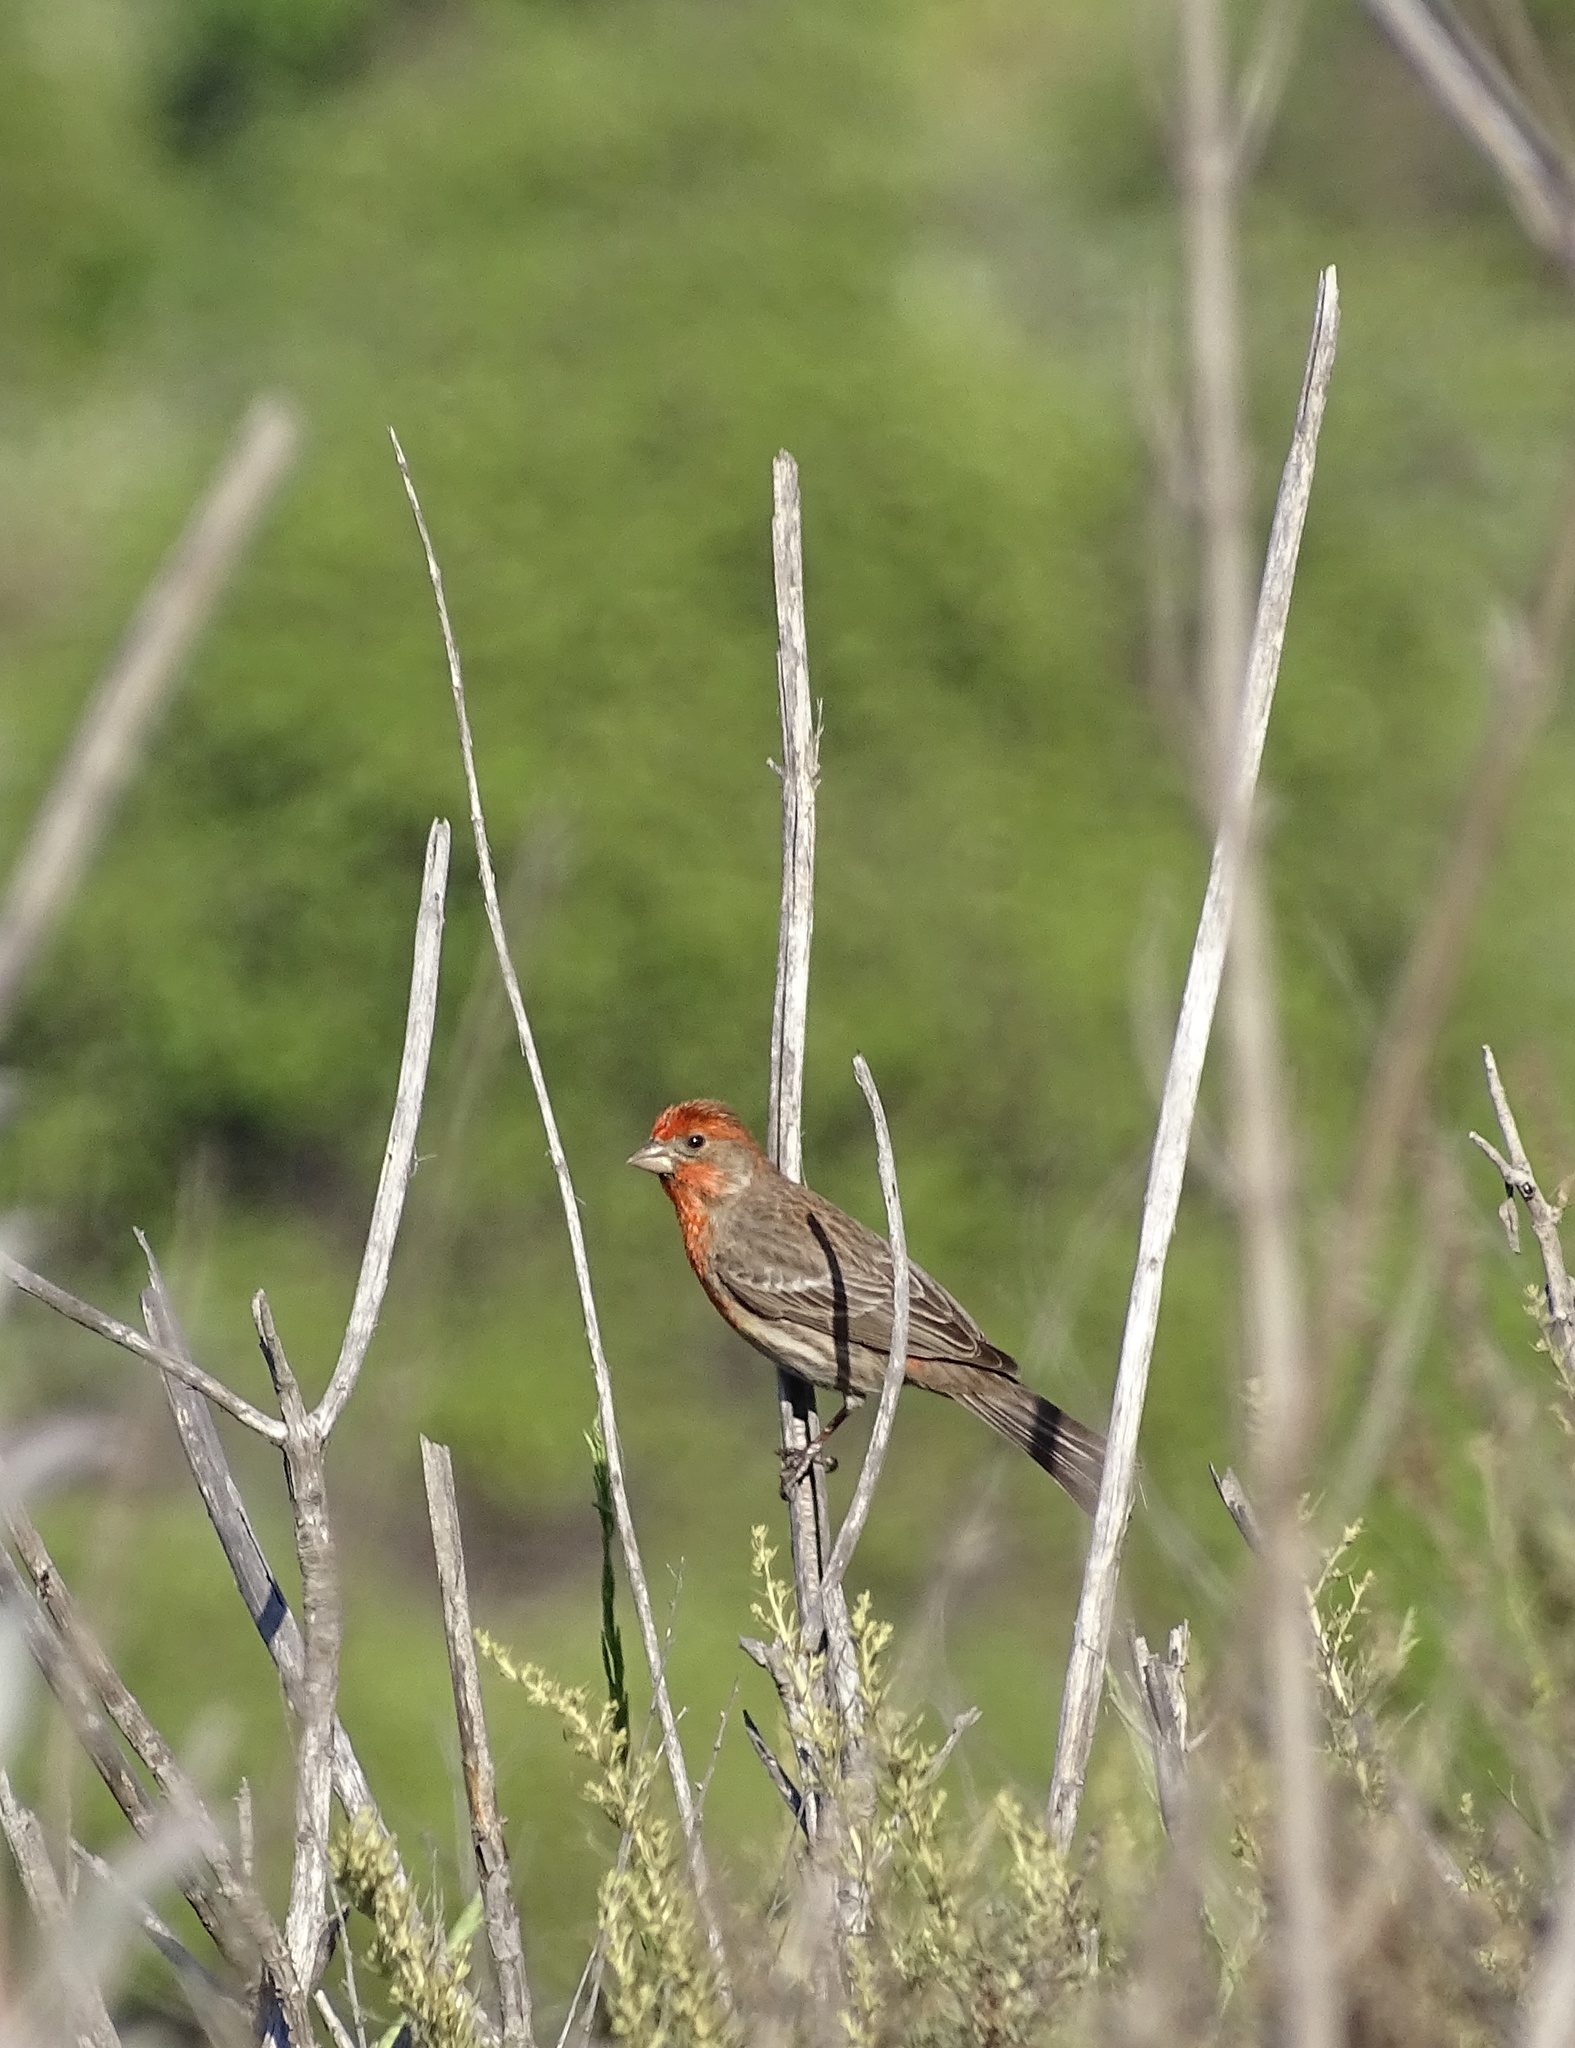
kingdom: Animalia
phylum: Chordata
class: Aves
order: Passeriformes
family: Fringillidae
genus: Haemorhous
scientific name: Haemorhous mexicanus
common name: House finch
